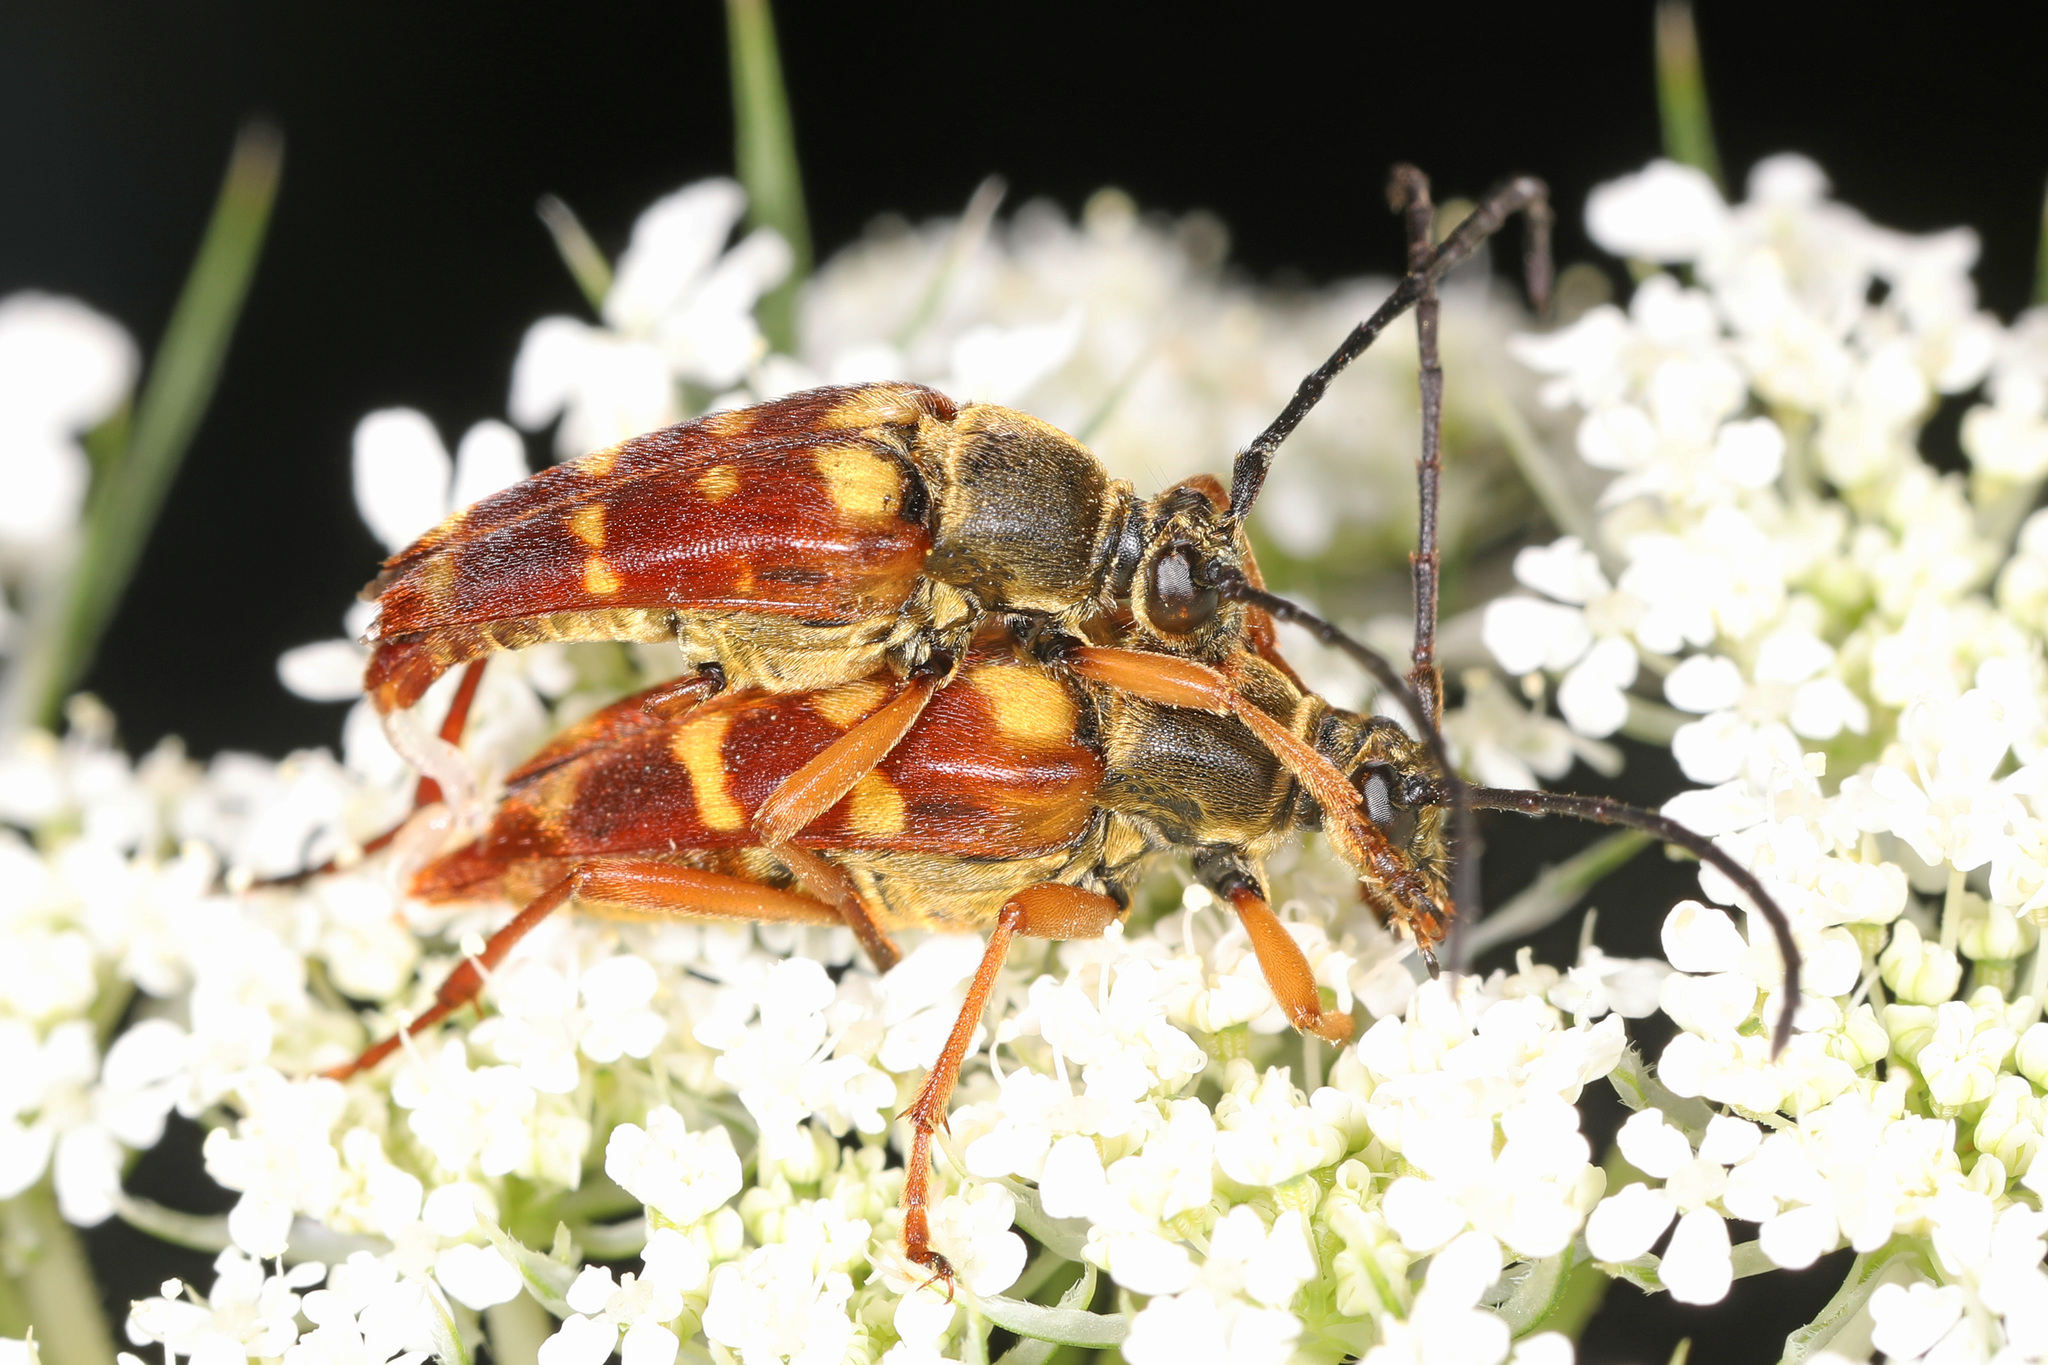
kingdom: Animalia
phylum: Arthropoda
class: Insecta
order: Coleoptera
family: Cerambycidae
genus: Typocerus
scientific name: Typocerus velutinus
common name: Banded longhorn beetle
